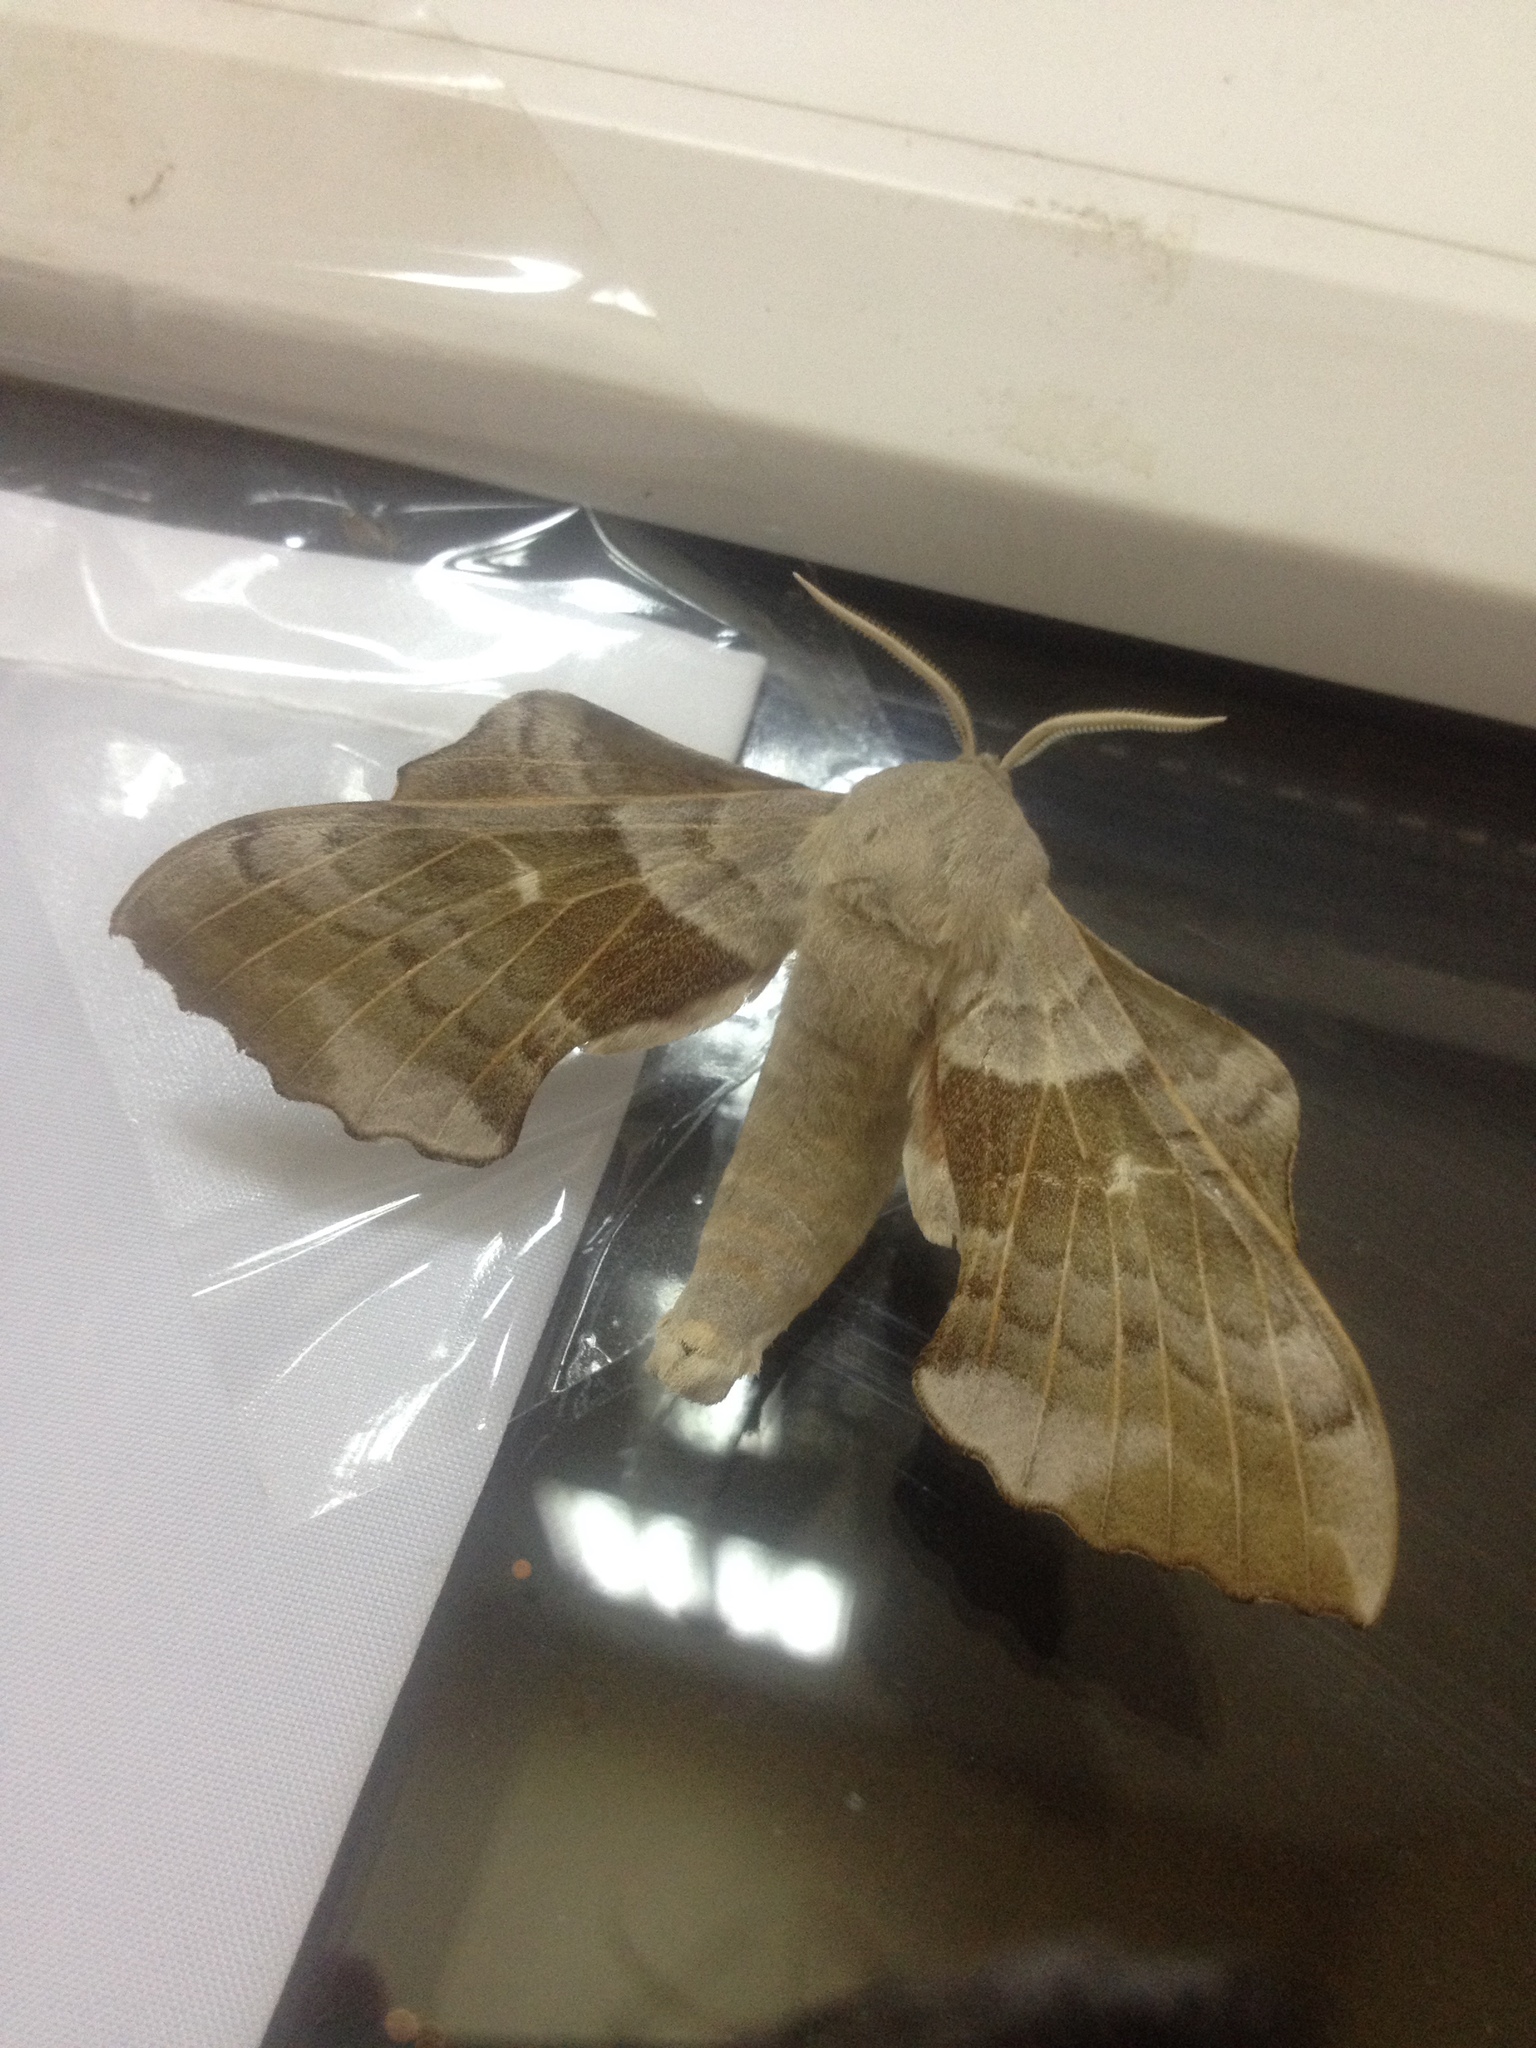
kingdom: Animalia
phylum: Arthropoda
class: Insecta
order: Lepidoptera
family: Sphingidae
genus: Laothoe
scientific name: Laothoe populi
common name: Poplar hawk-moth
